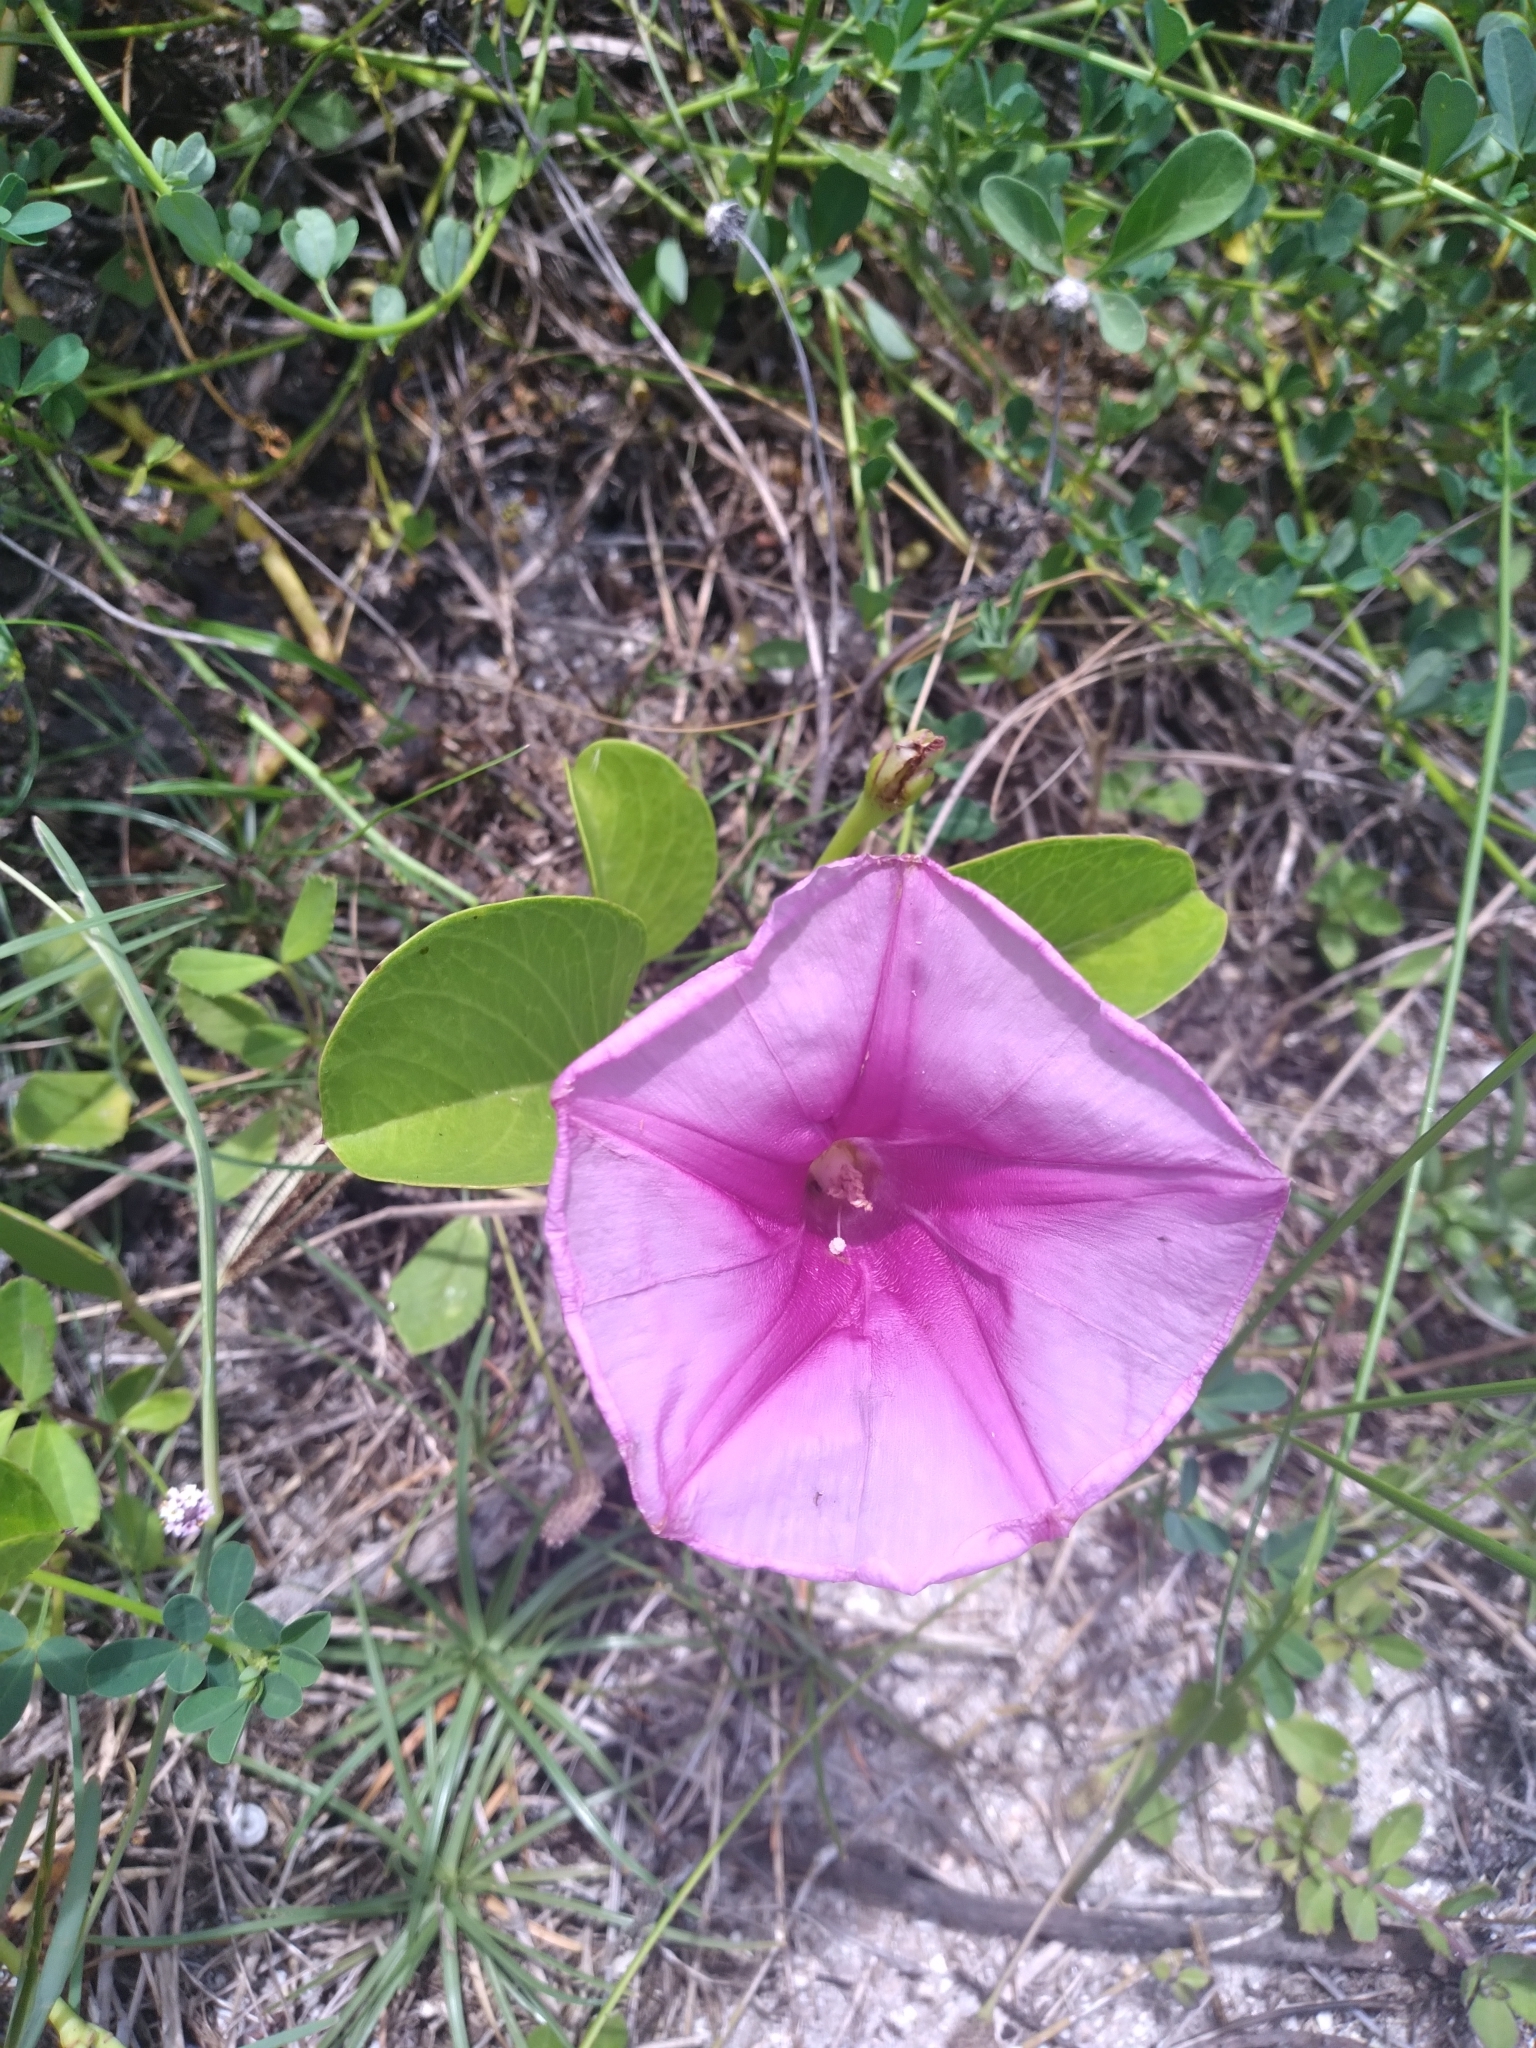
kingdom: Plantae
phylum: Tracheophyta
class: Magnoliopsida
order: Solanales
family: Convolvulaceae
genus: Ipomoea
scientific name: Ipomoea pes-caprae
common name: Beach morning glory
